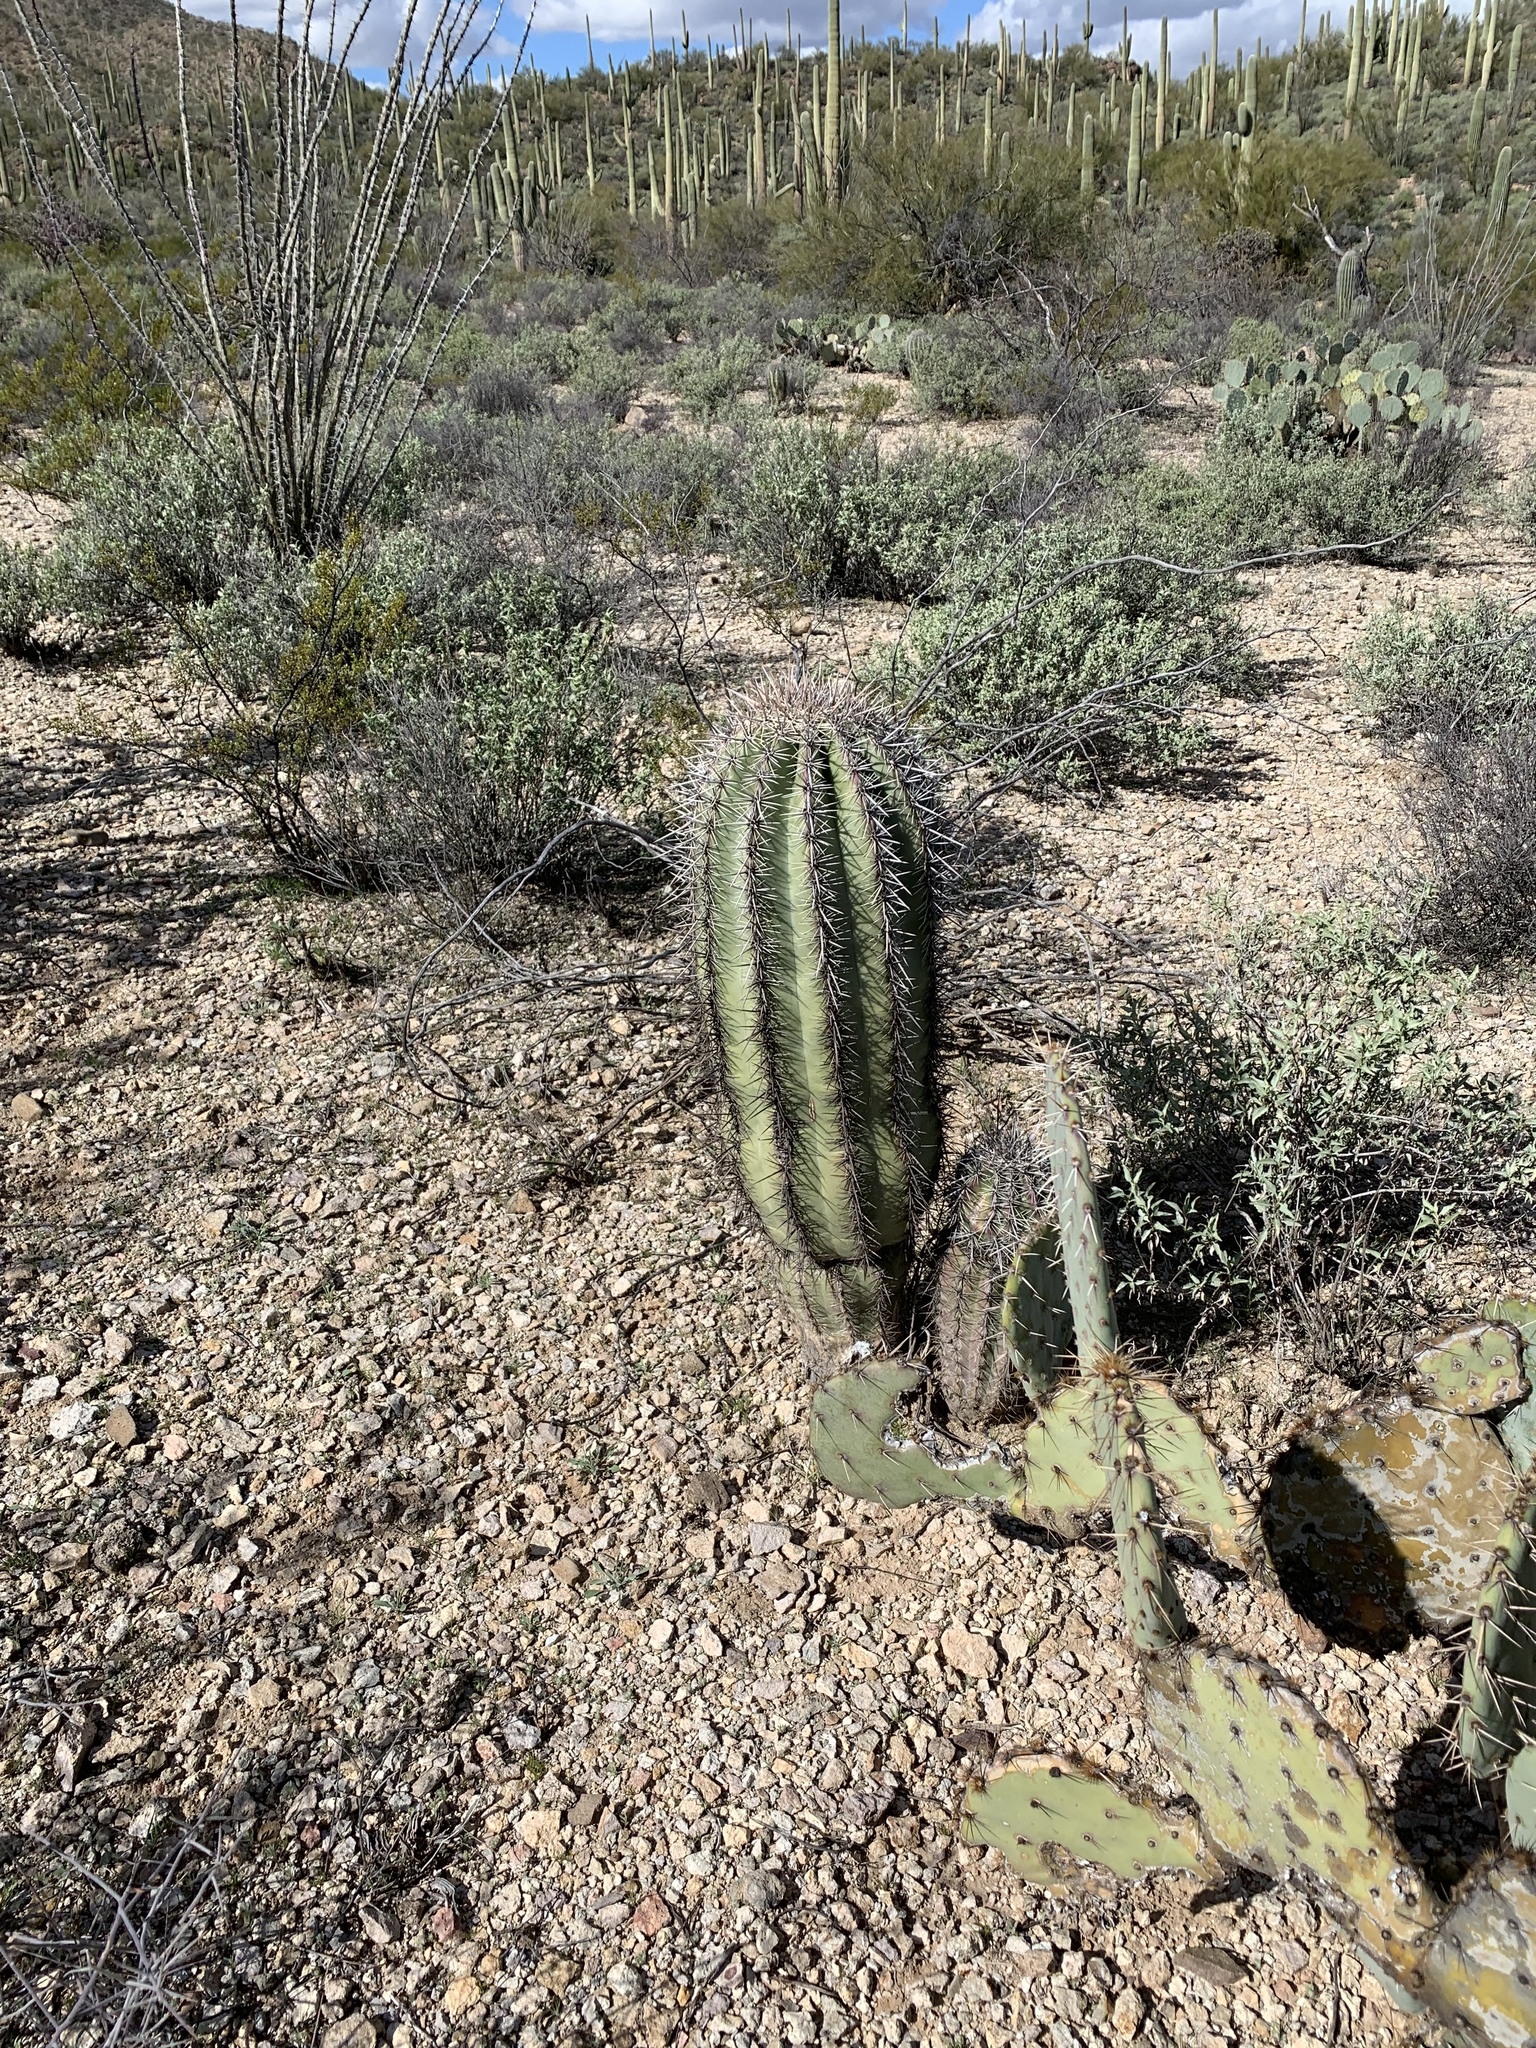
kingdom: Plantae
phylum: Tracheophyta
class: Magnoliopsida
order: Caryophyllales
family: Cactaceae
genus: Carnegiea
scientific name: Carnegiea gigantea
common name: Saguaro
